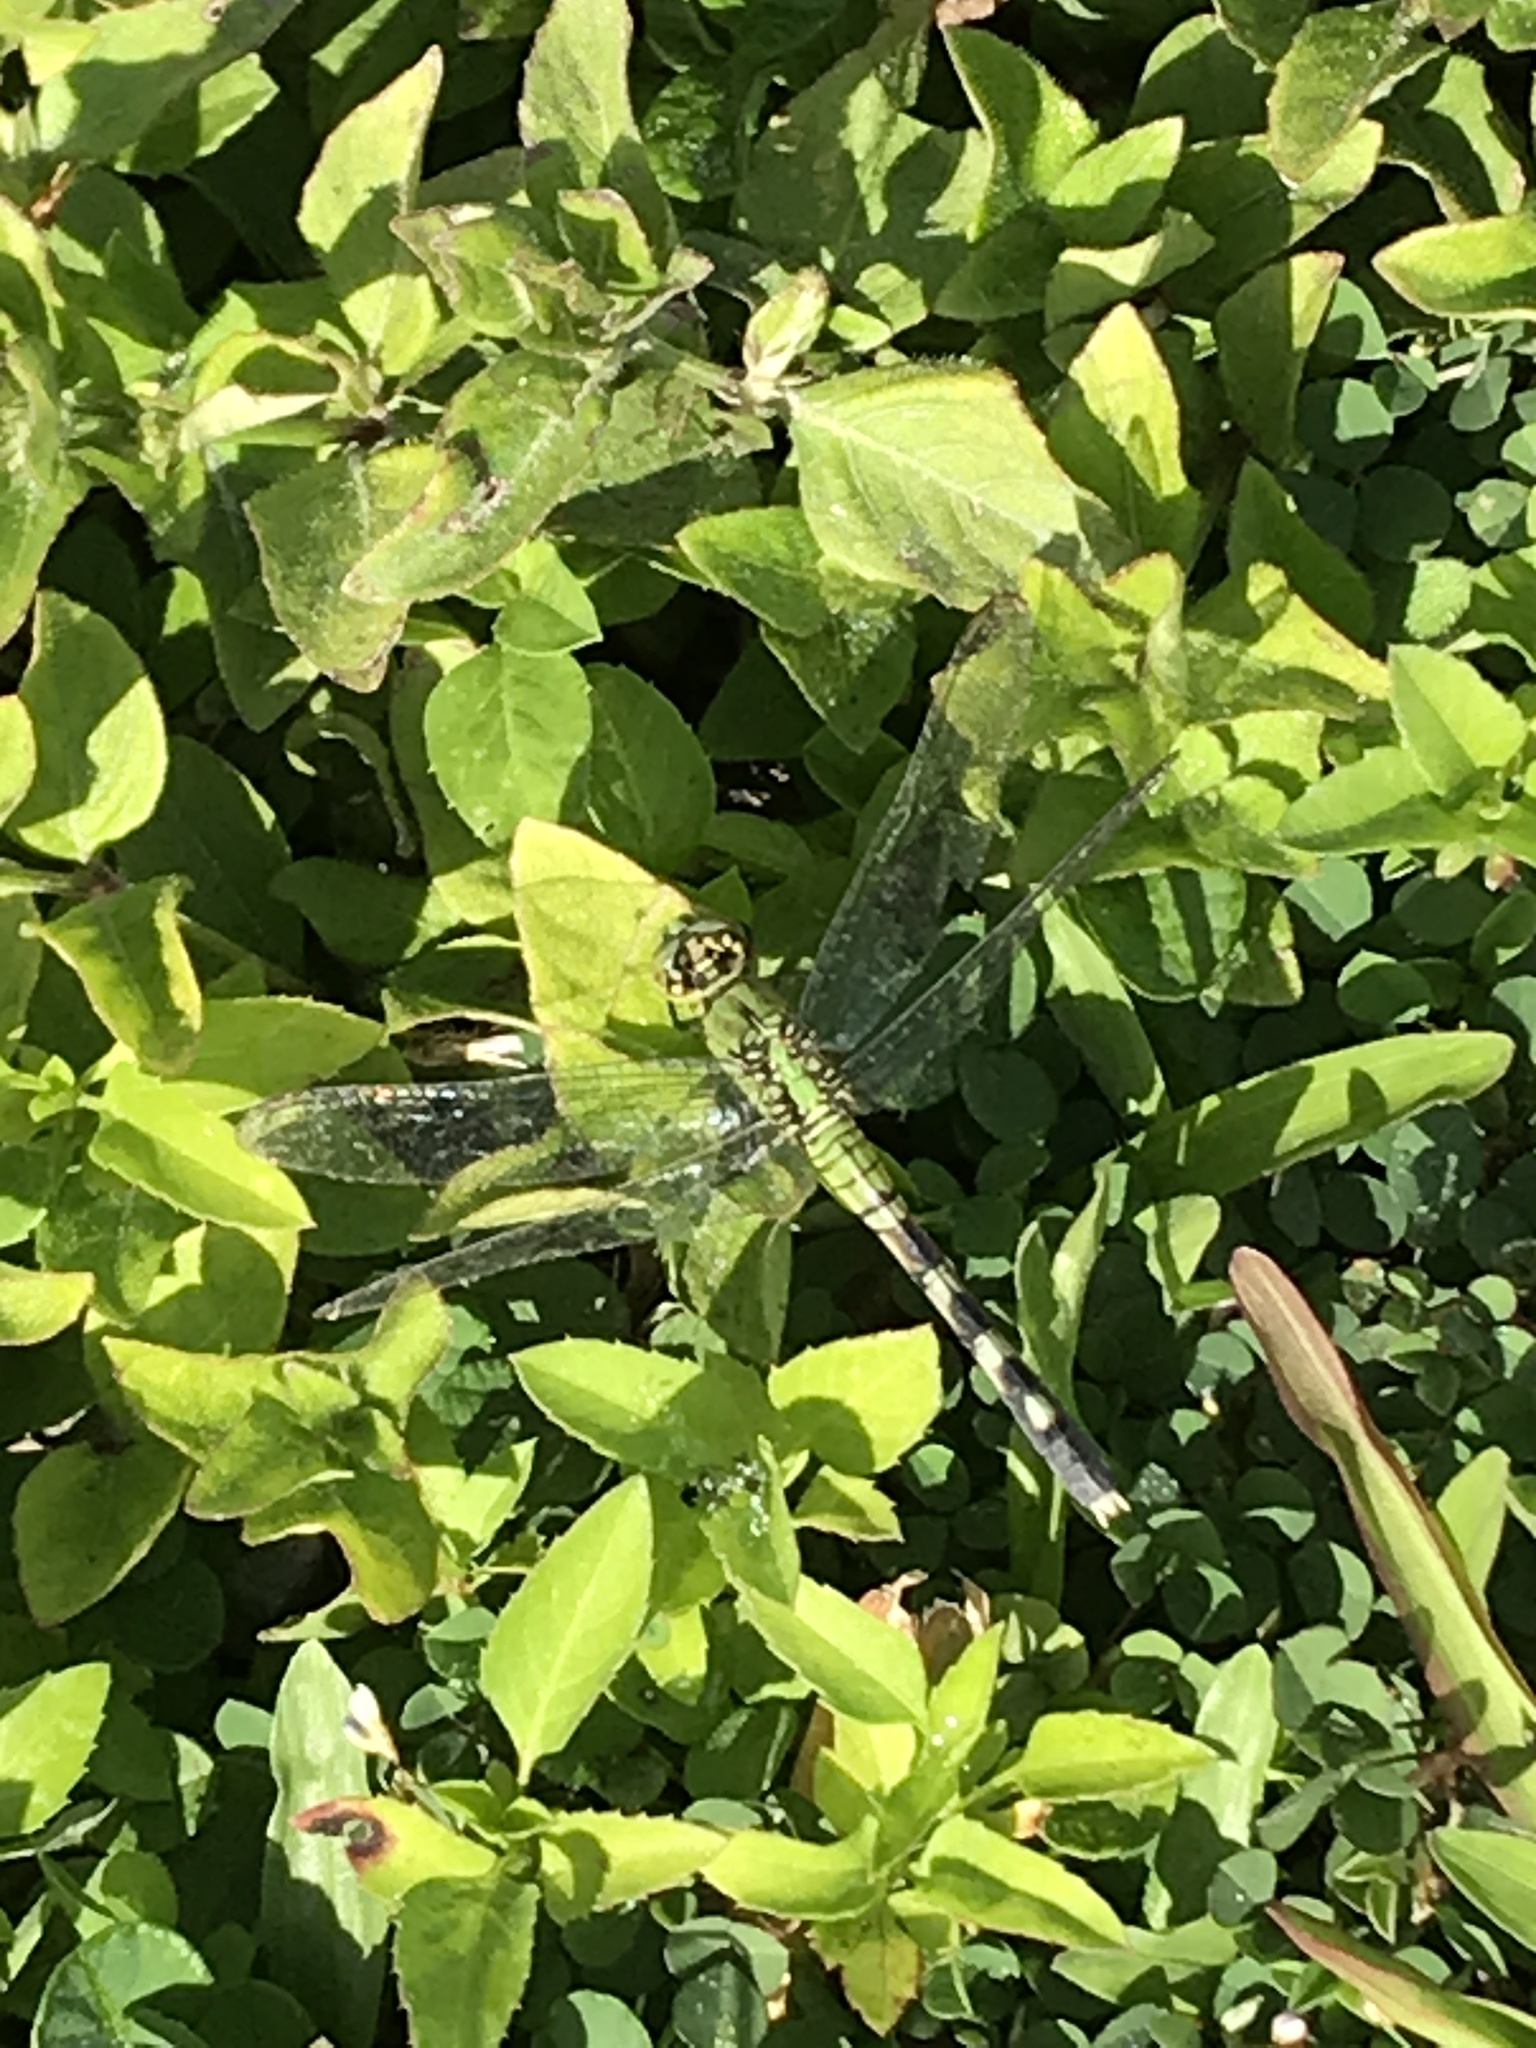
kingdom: Animalia
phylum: Arthropoda
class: Insecta
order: Odonata
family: Libellulidae
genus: Erythemis
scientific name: Erythemis simplicicollis
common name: Eastern pondhawk
